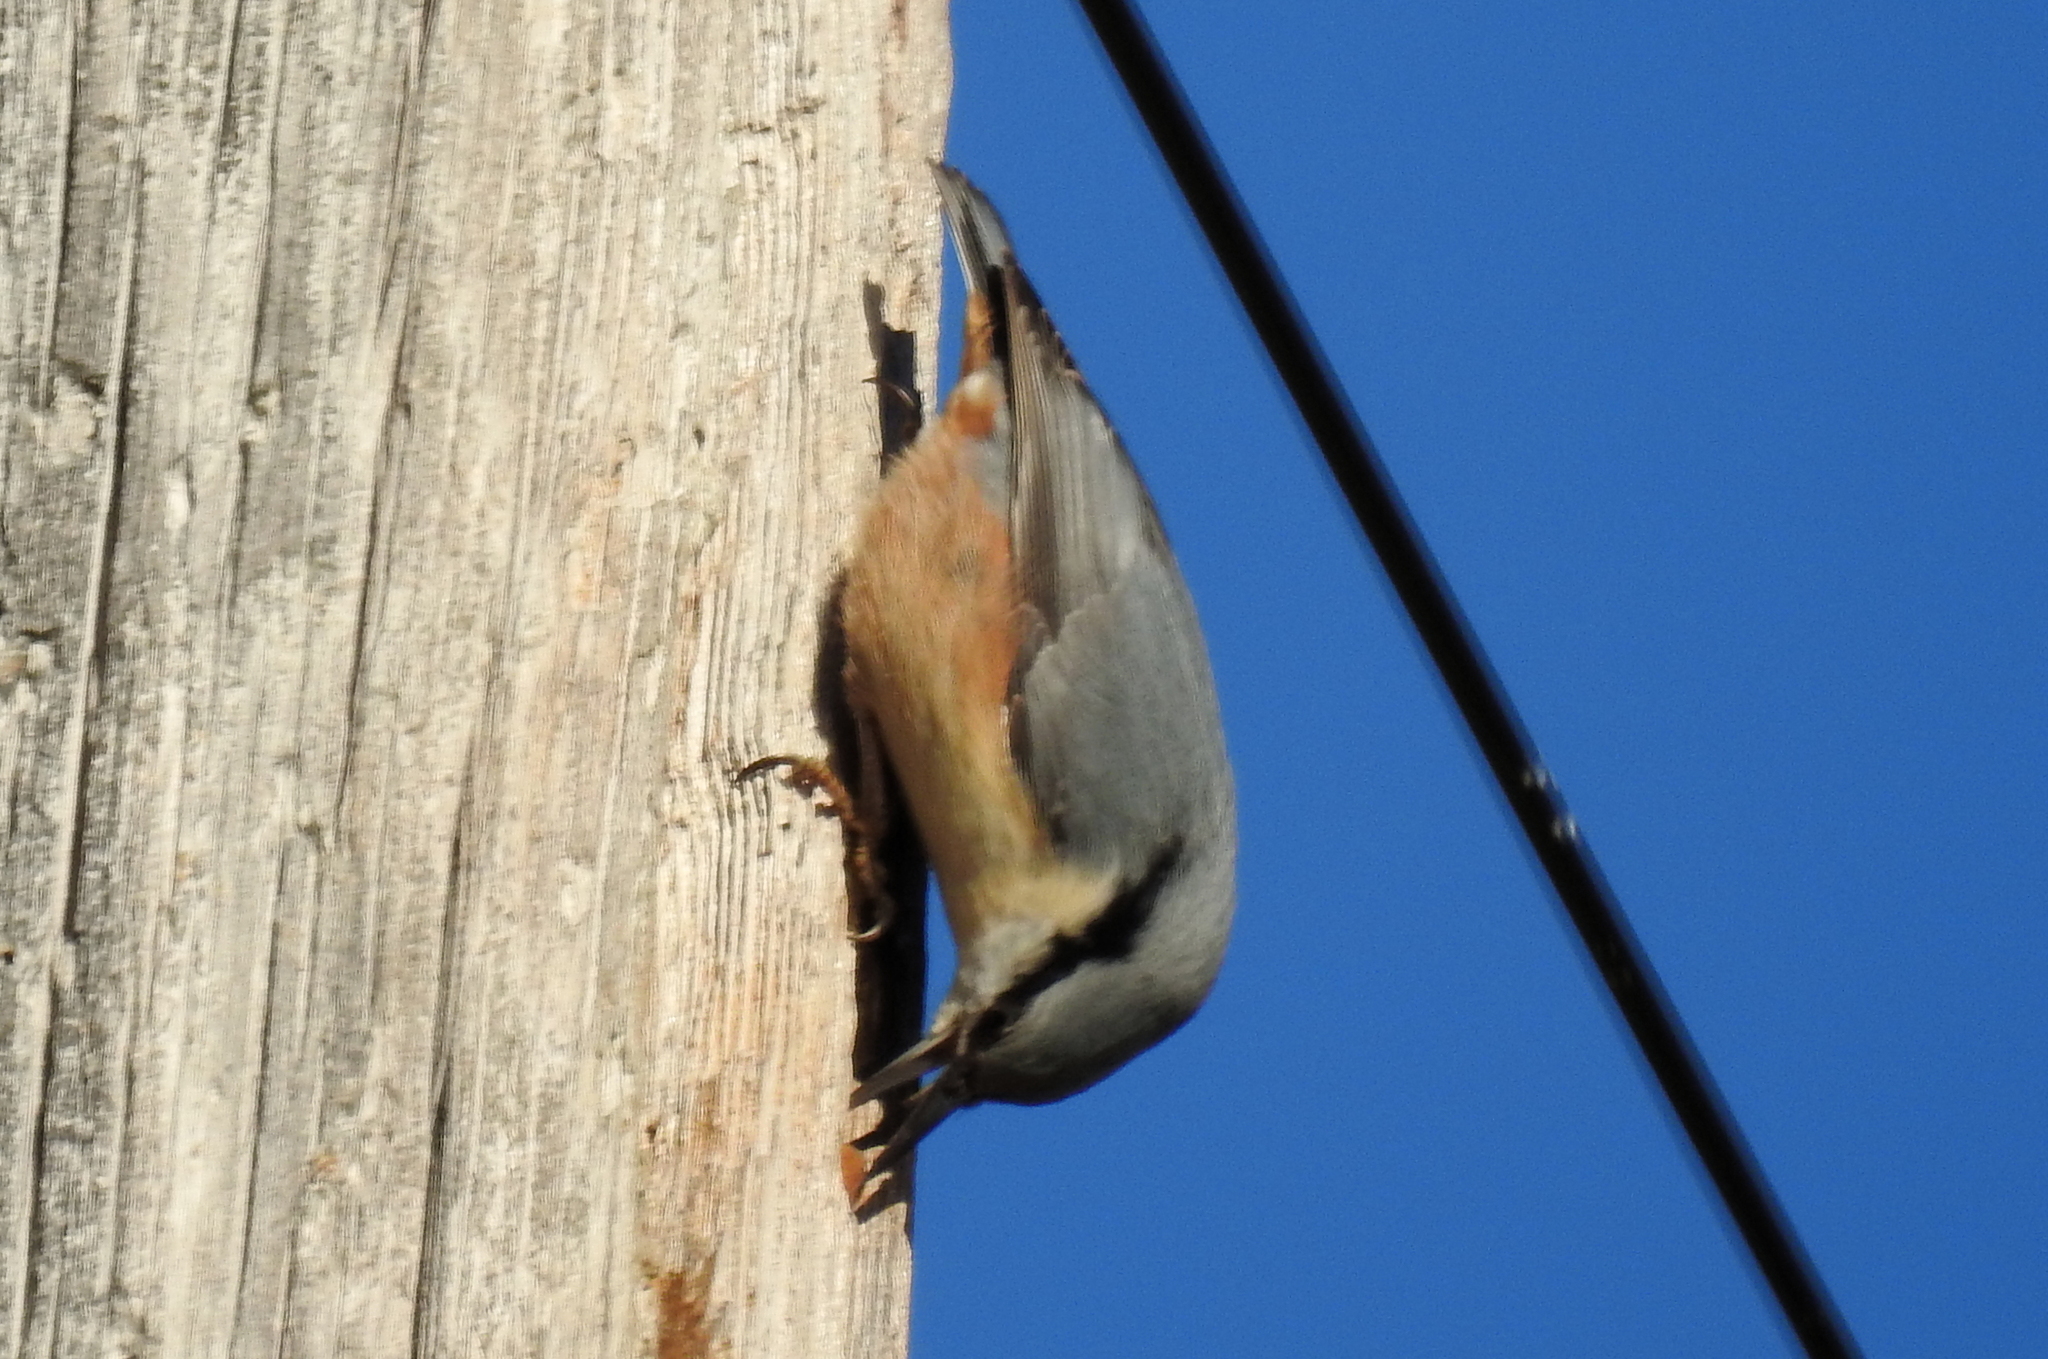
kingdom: Animalia
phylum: Chordata
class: Aves
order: Passeriformes
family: Sittidae
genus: Sitta
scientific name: Sitta europaea
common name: Eurasian nuthatch
